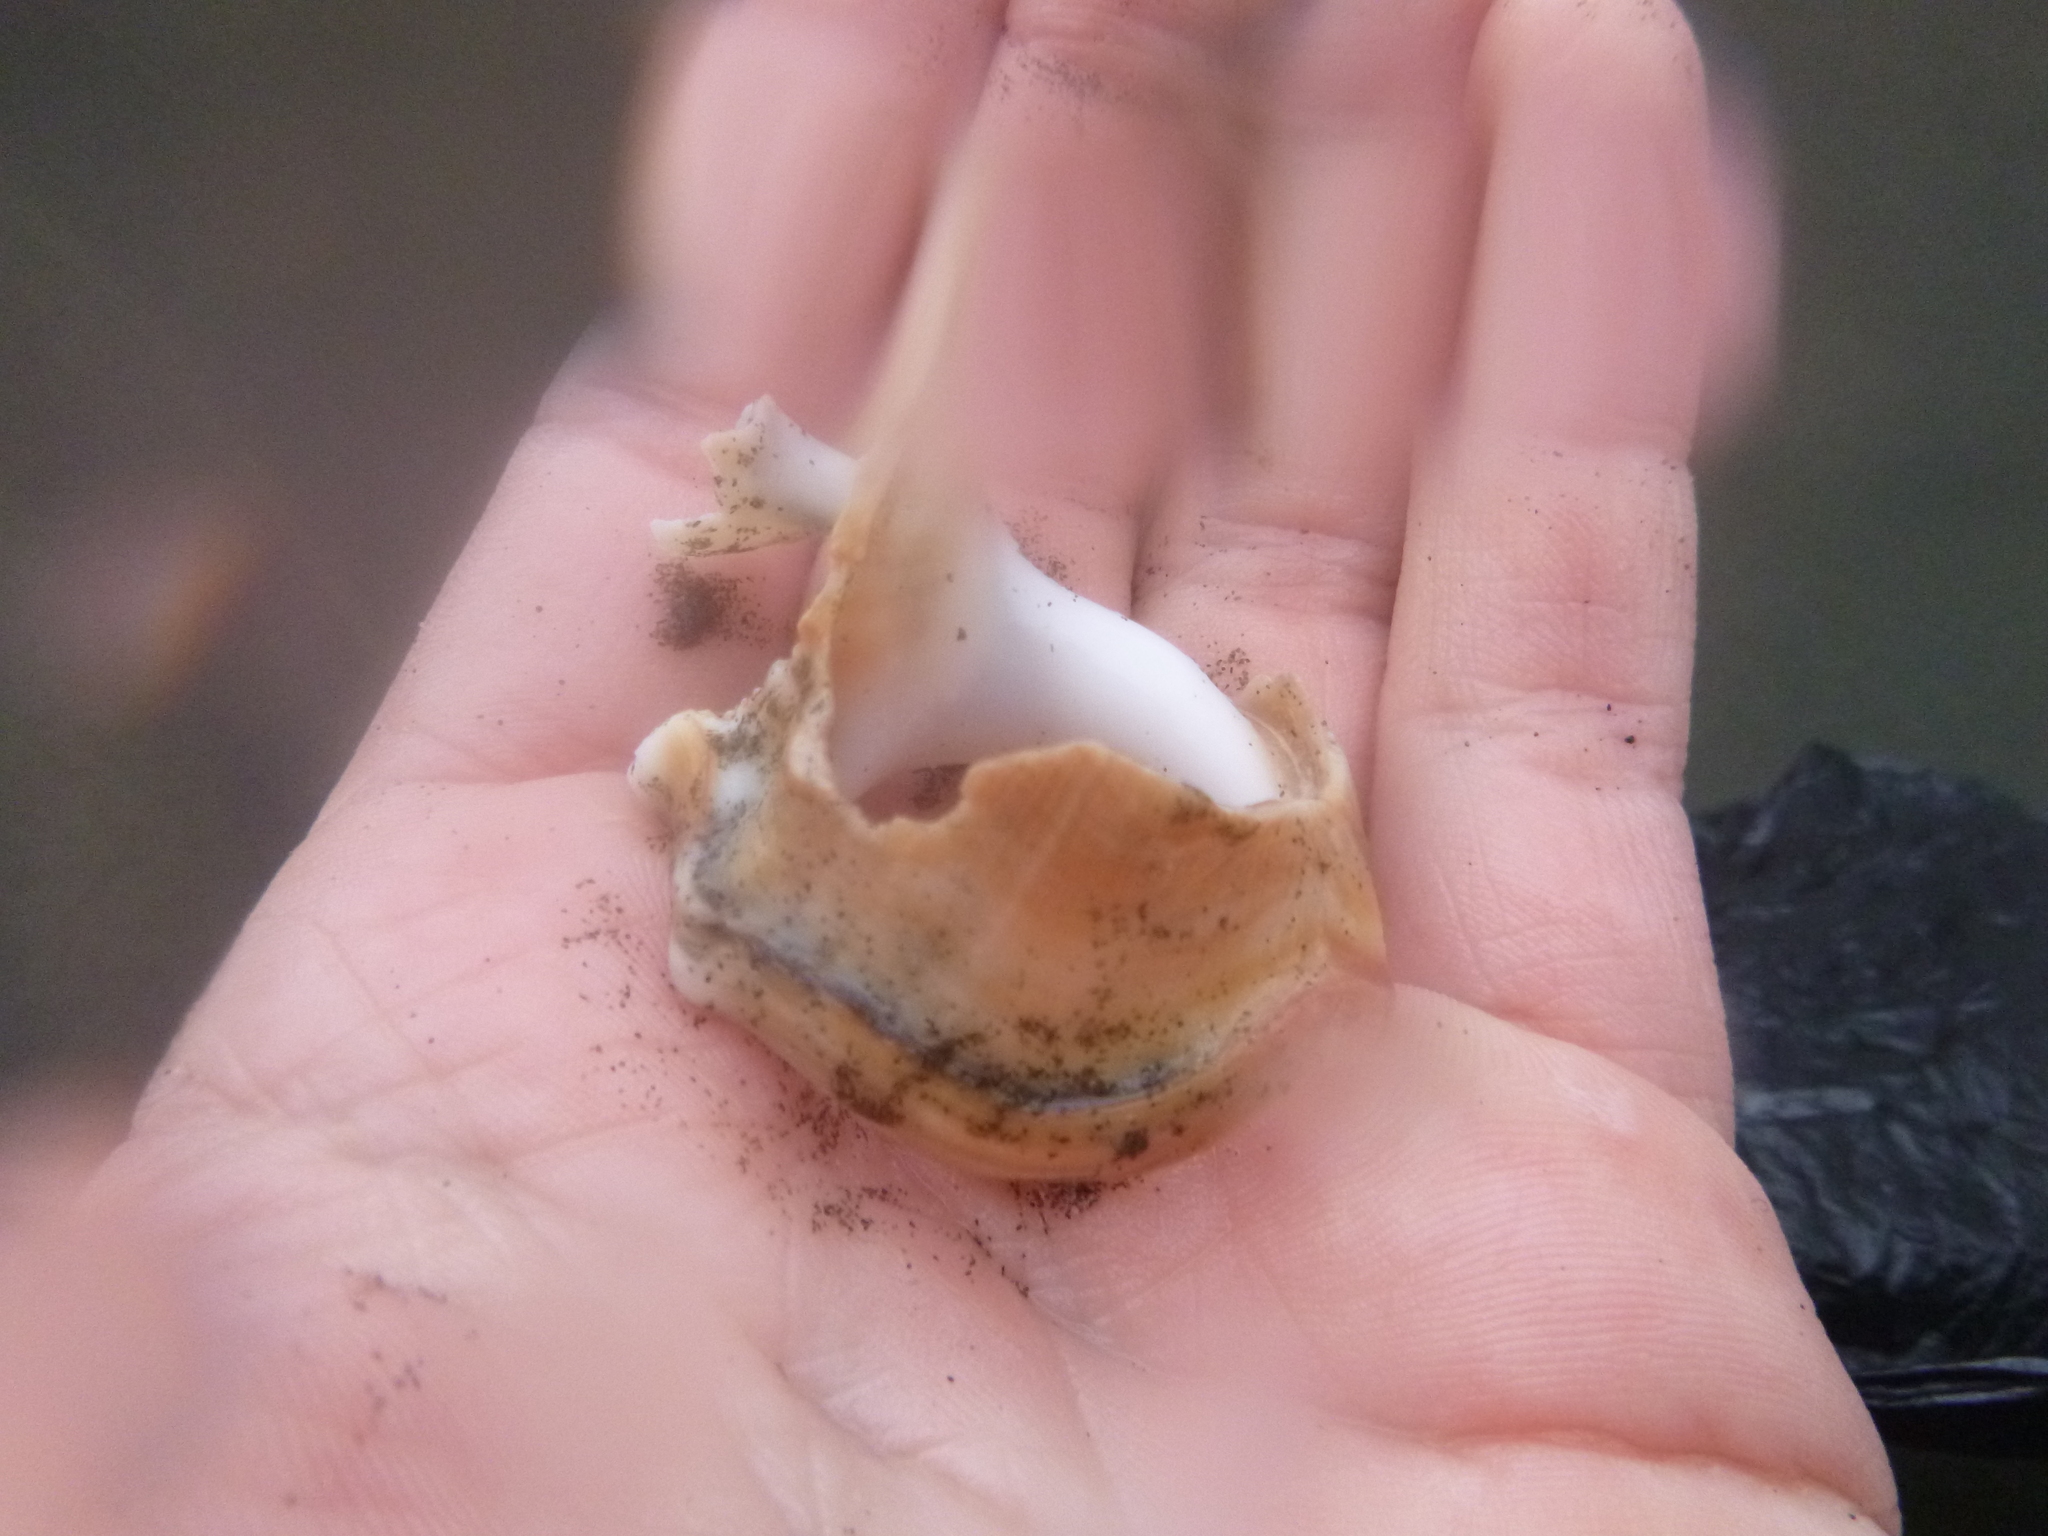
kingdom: Animalia
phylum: Mollusca
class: Gastropoda
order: Littorinimorpha
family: Struthiolariidae
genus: Struthiolaria
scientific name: Struthiolaria papulosa
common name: Large ostrich foot
